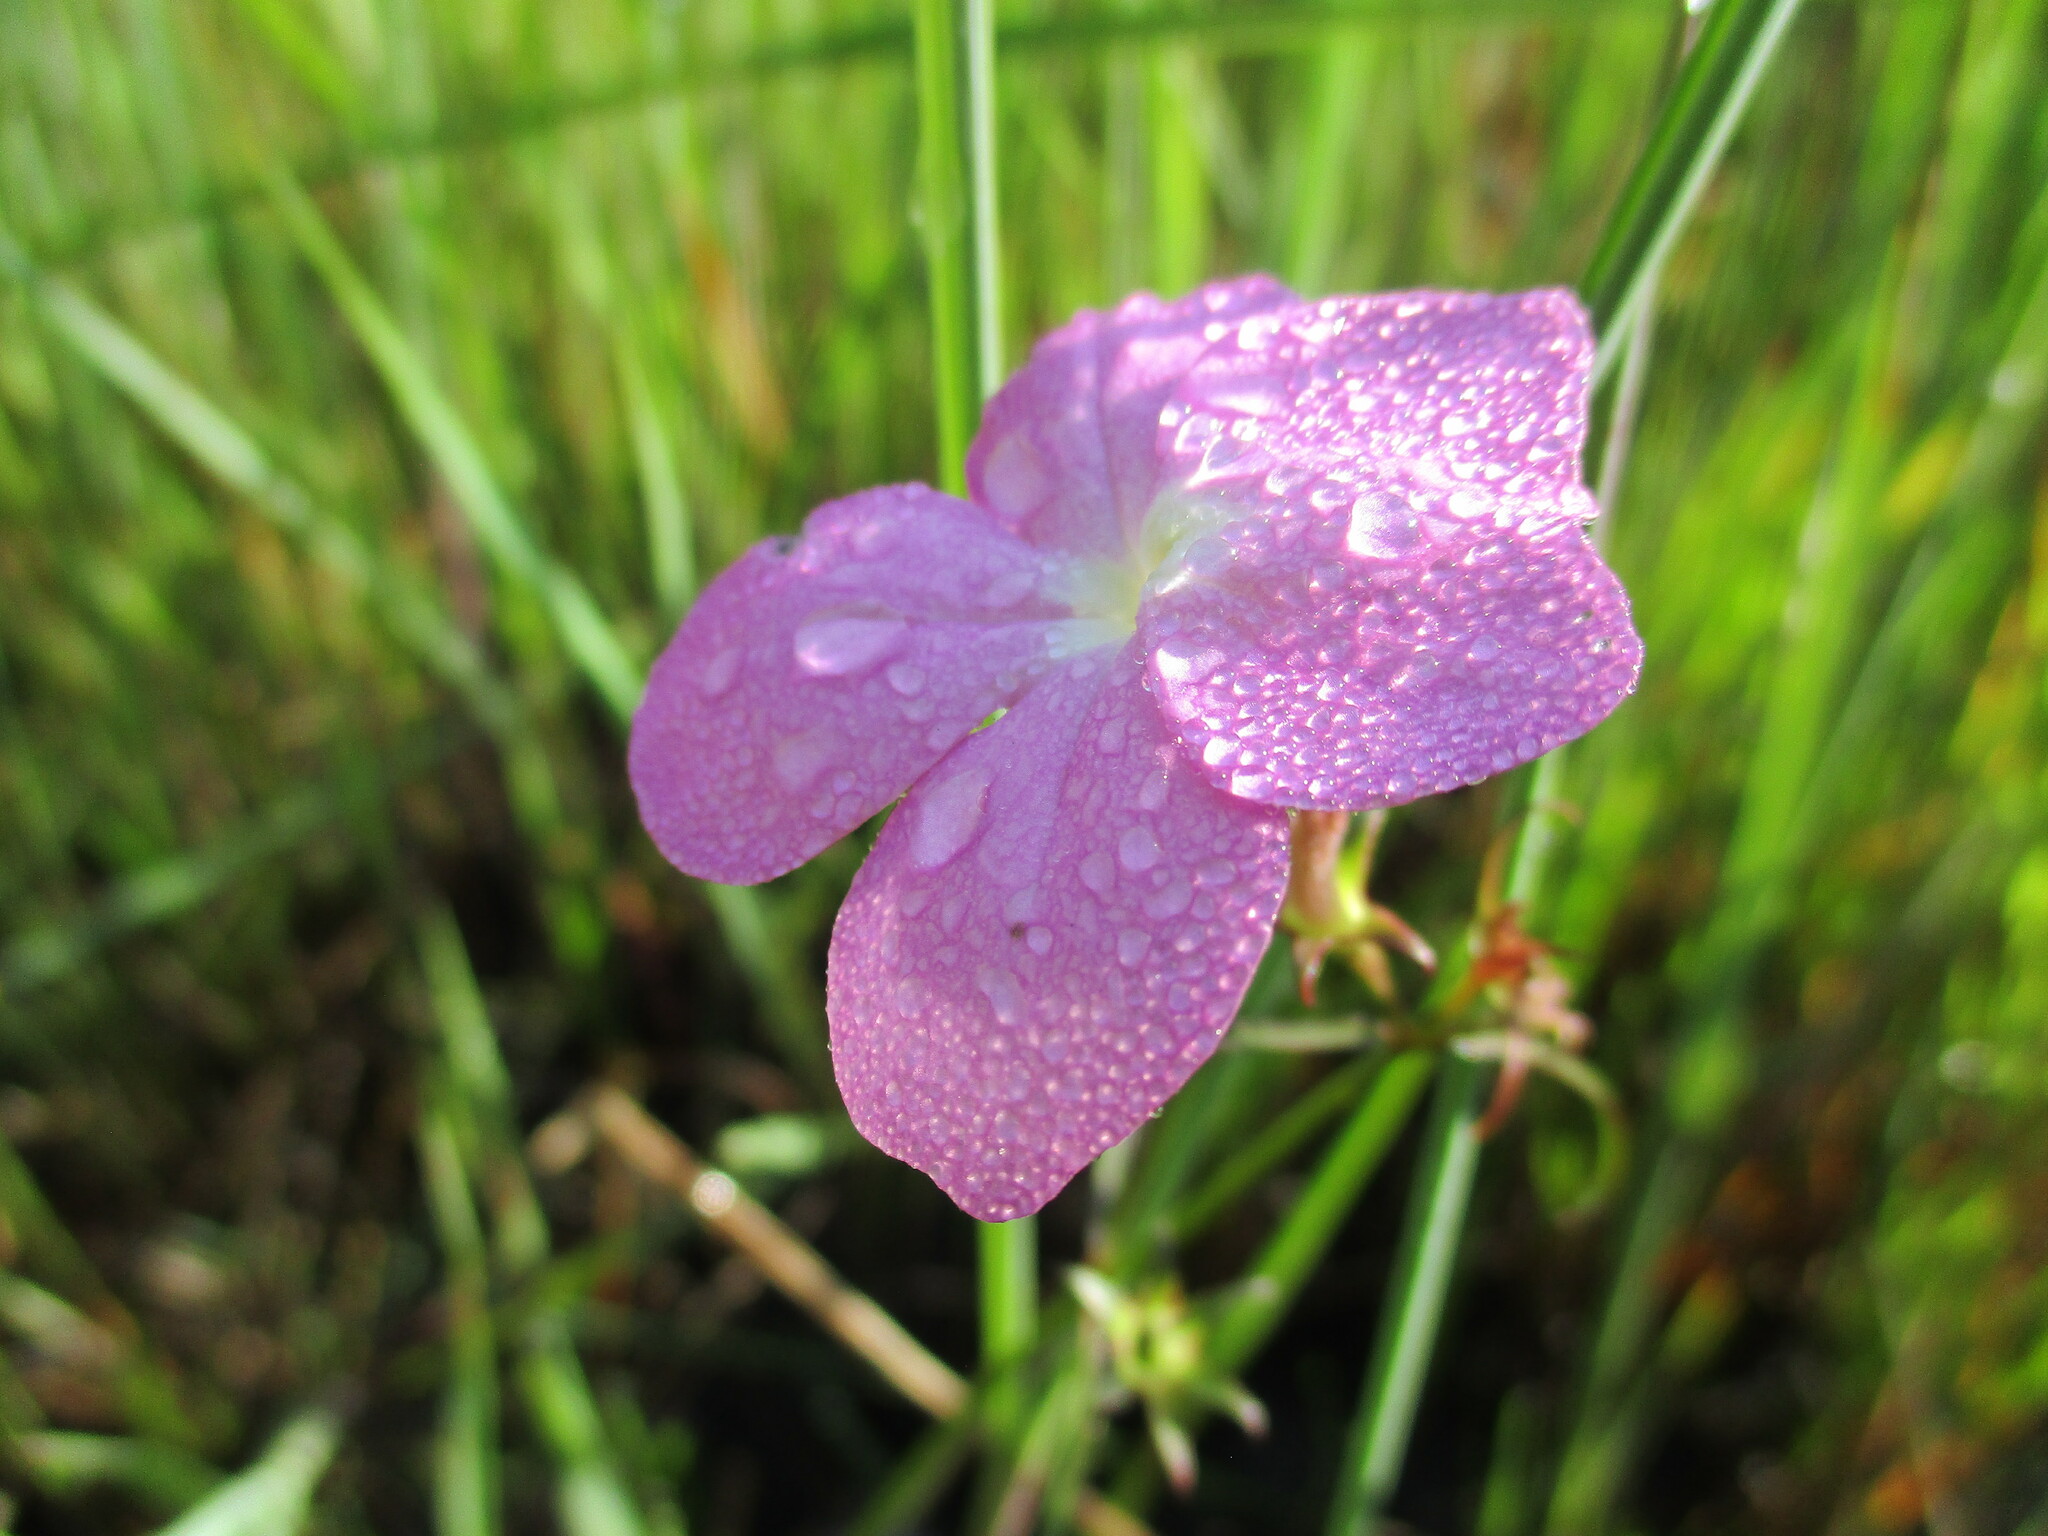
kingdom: Plantae
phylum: Tracheophyta
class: Magnoliopsida
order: Lamiales
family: Orobanchaceae
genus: Cycnium
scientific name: Cycnium tubulosum
